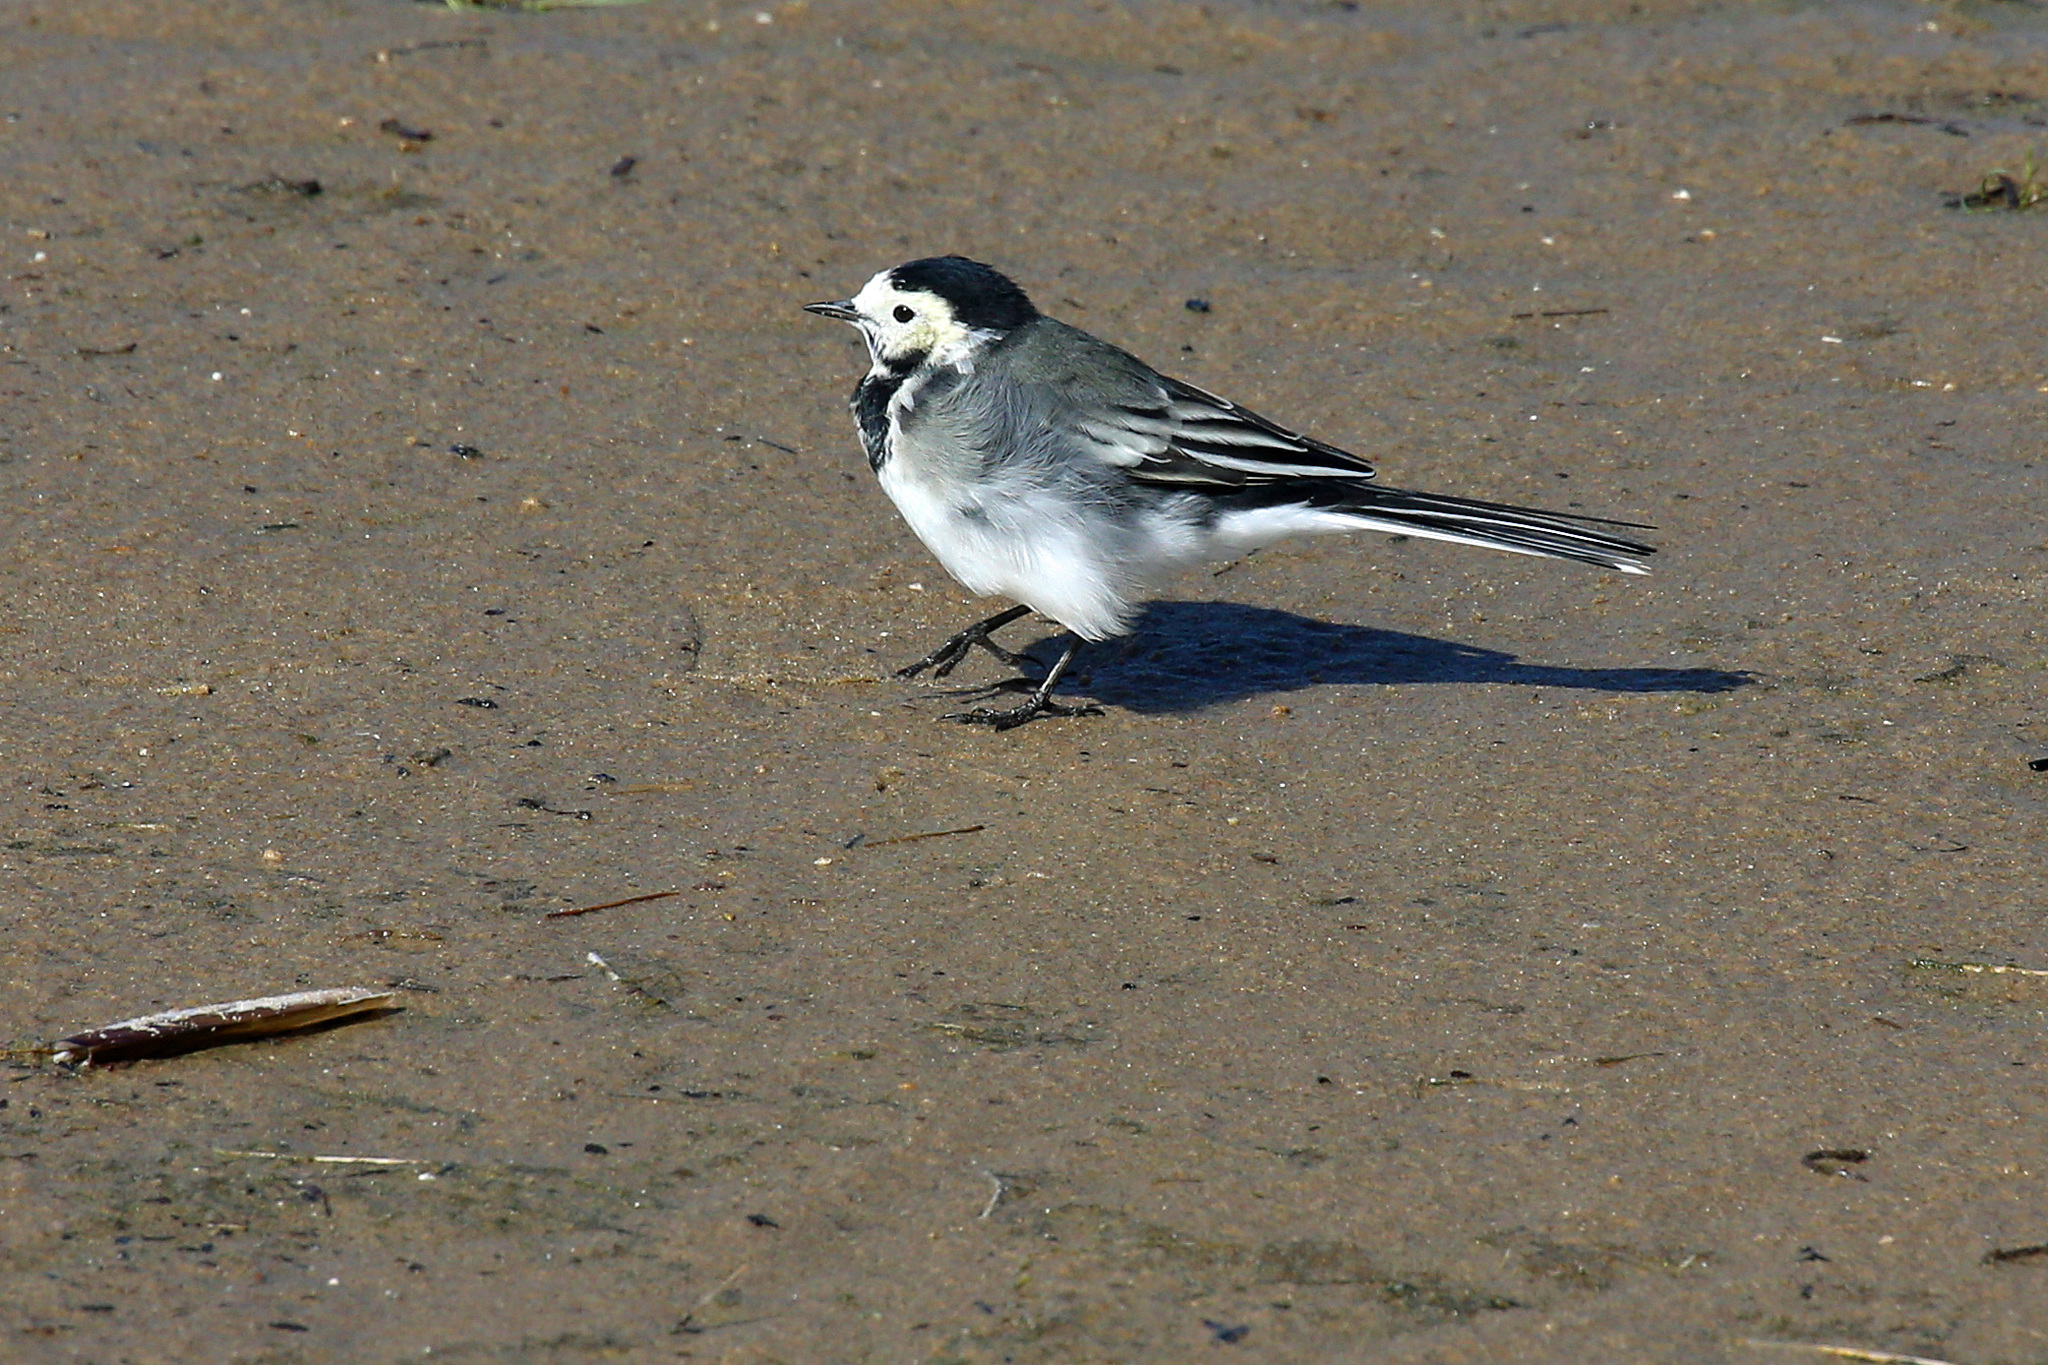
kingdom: Animalia
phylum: Chordata
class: Aves
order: Passeriformes
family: Motacillidae
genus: Motacilla
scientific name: Motacilla alba
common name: White wagtail
